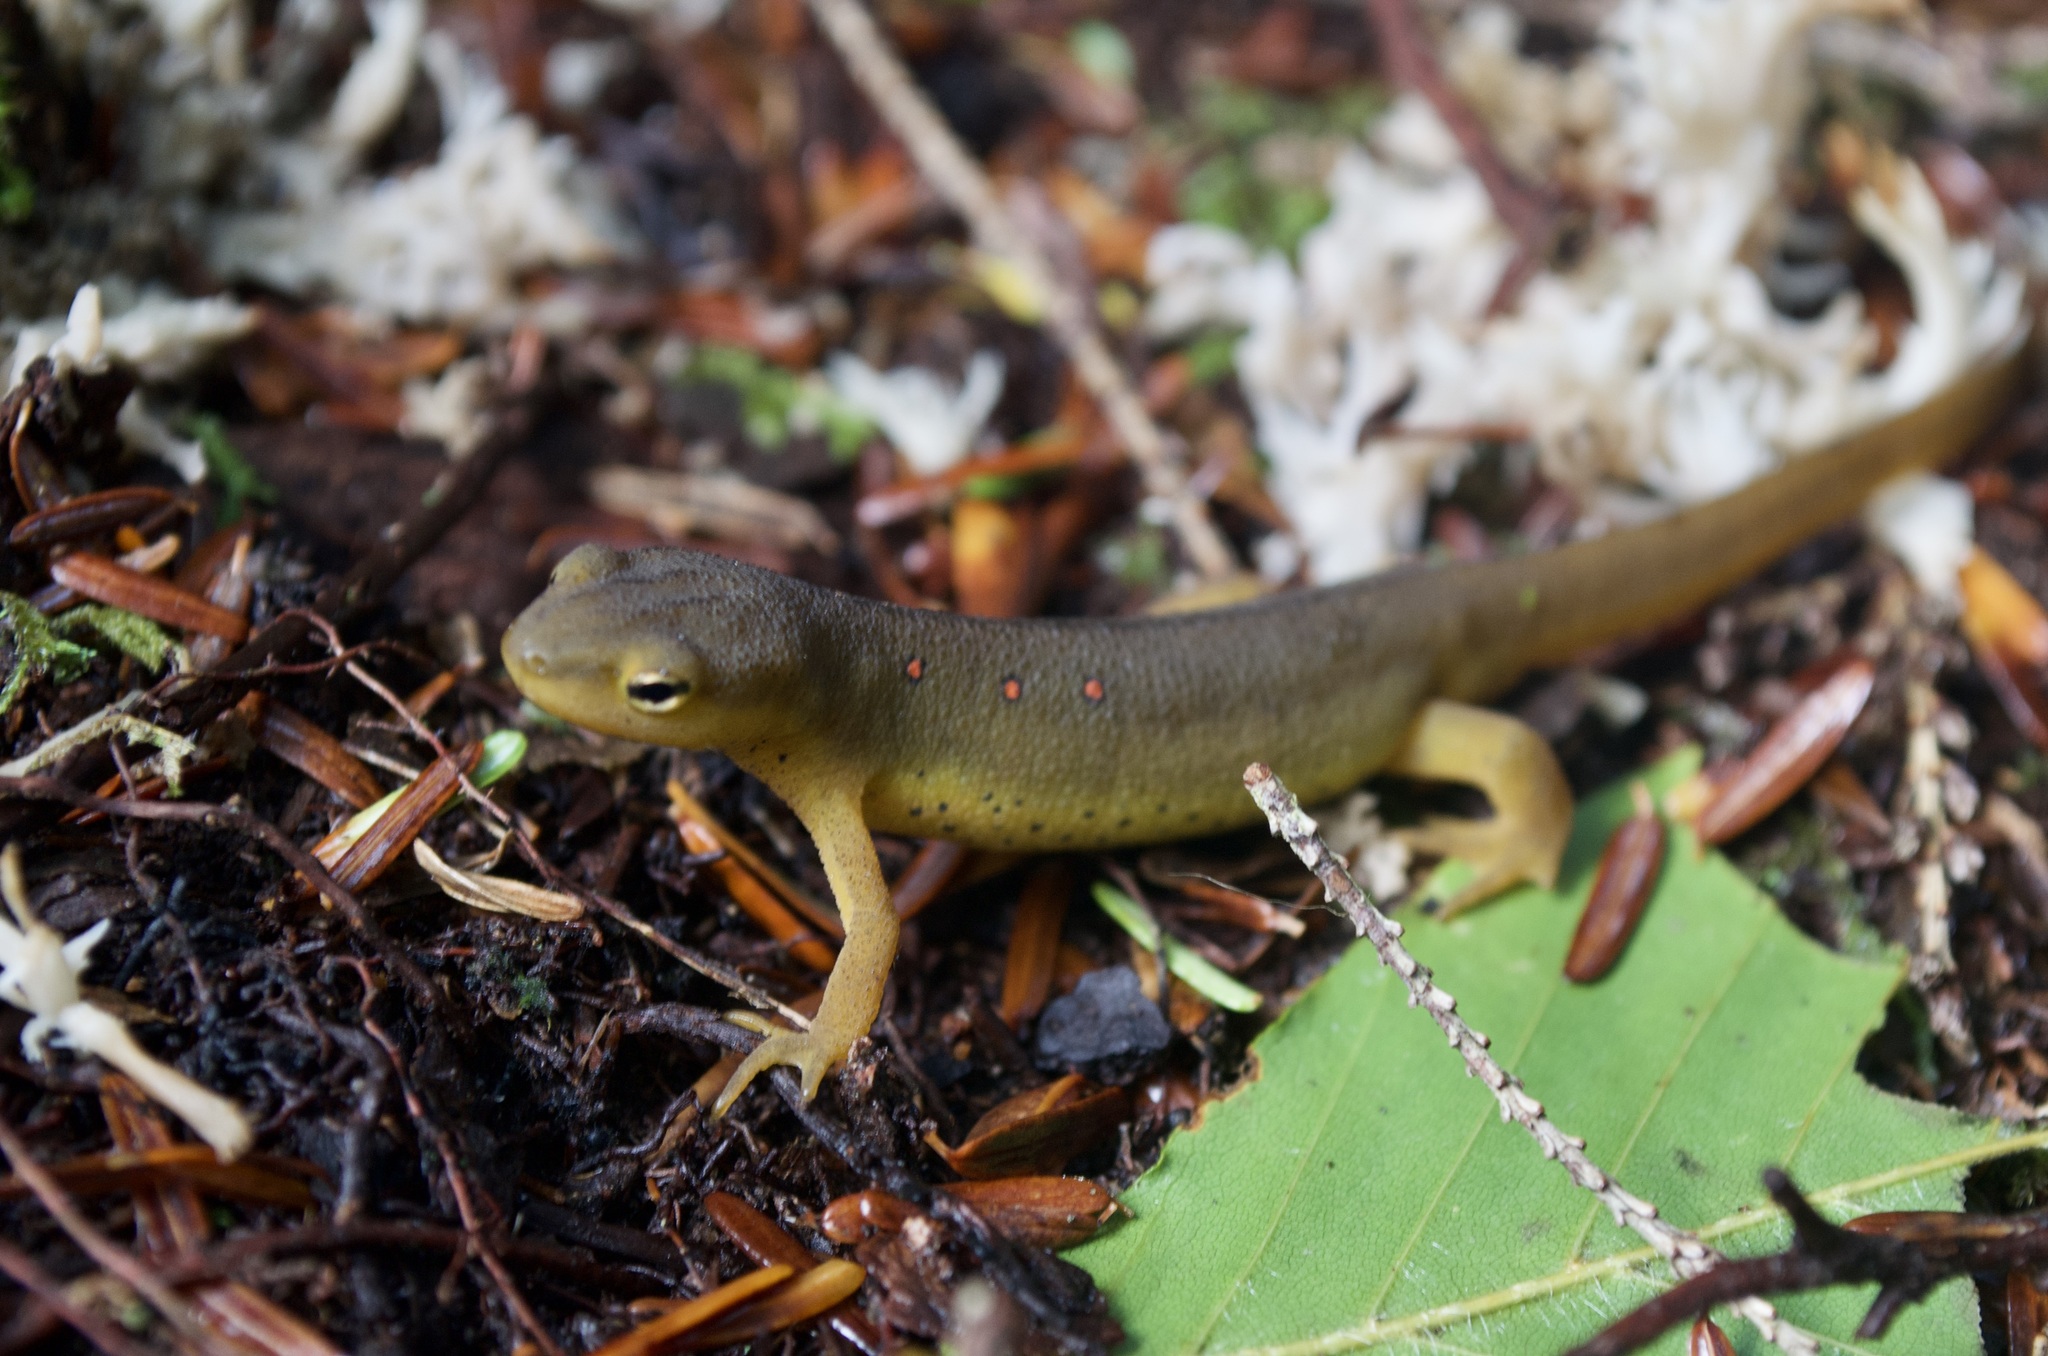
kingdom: Animalia
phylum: Chordata
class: Amphibia
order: Caudata
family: Salamandridae
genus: Notophthalmus
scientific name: Notophthalmus viridescens
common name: Eastern newt
